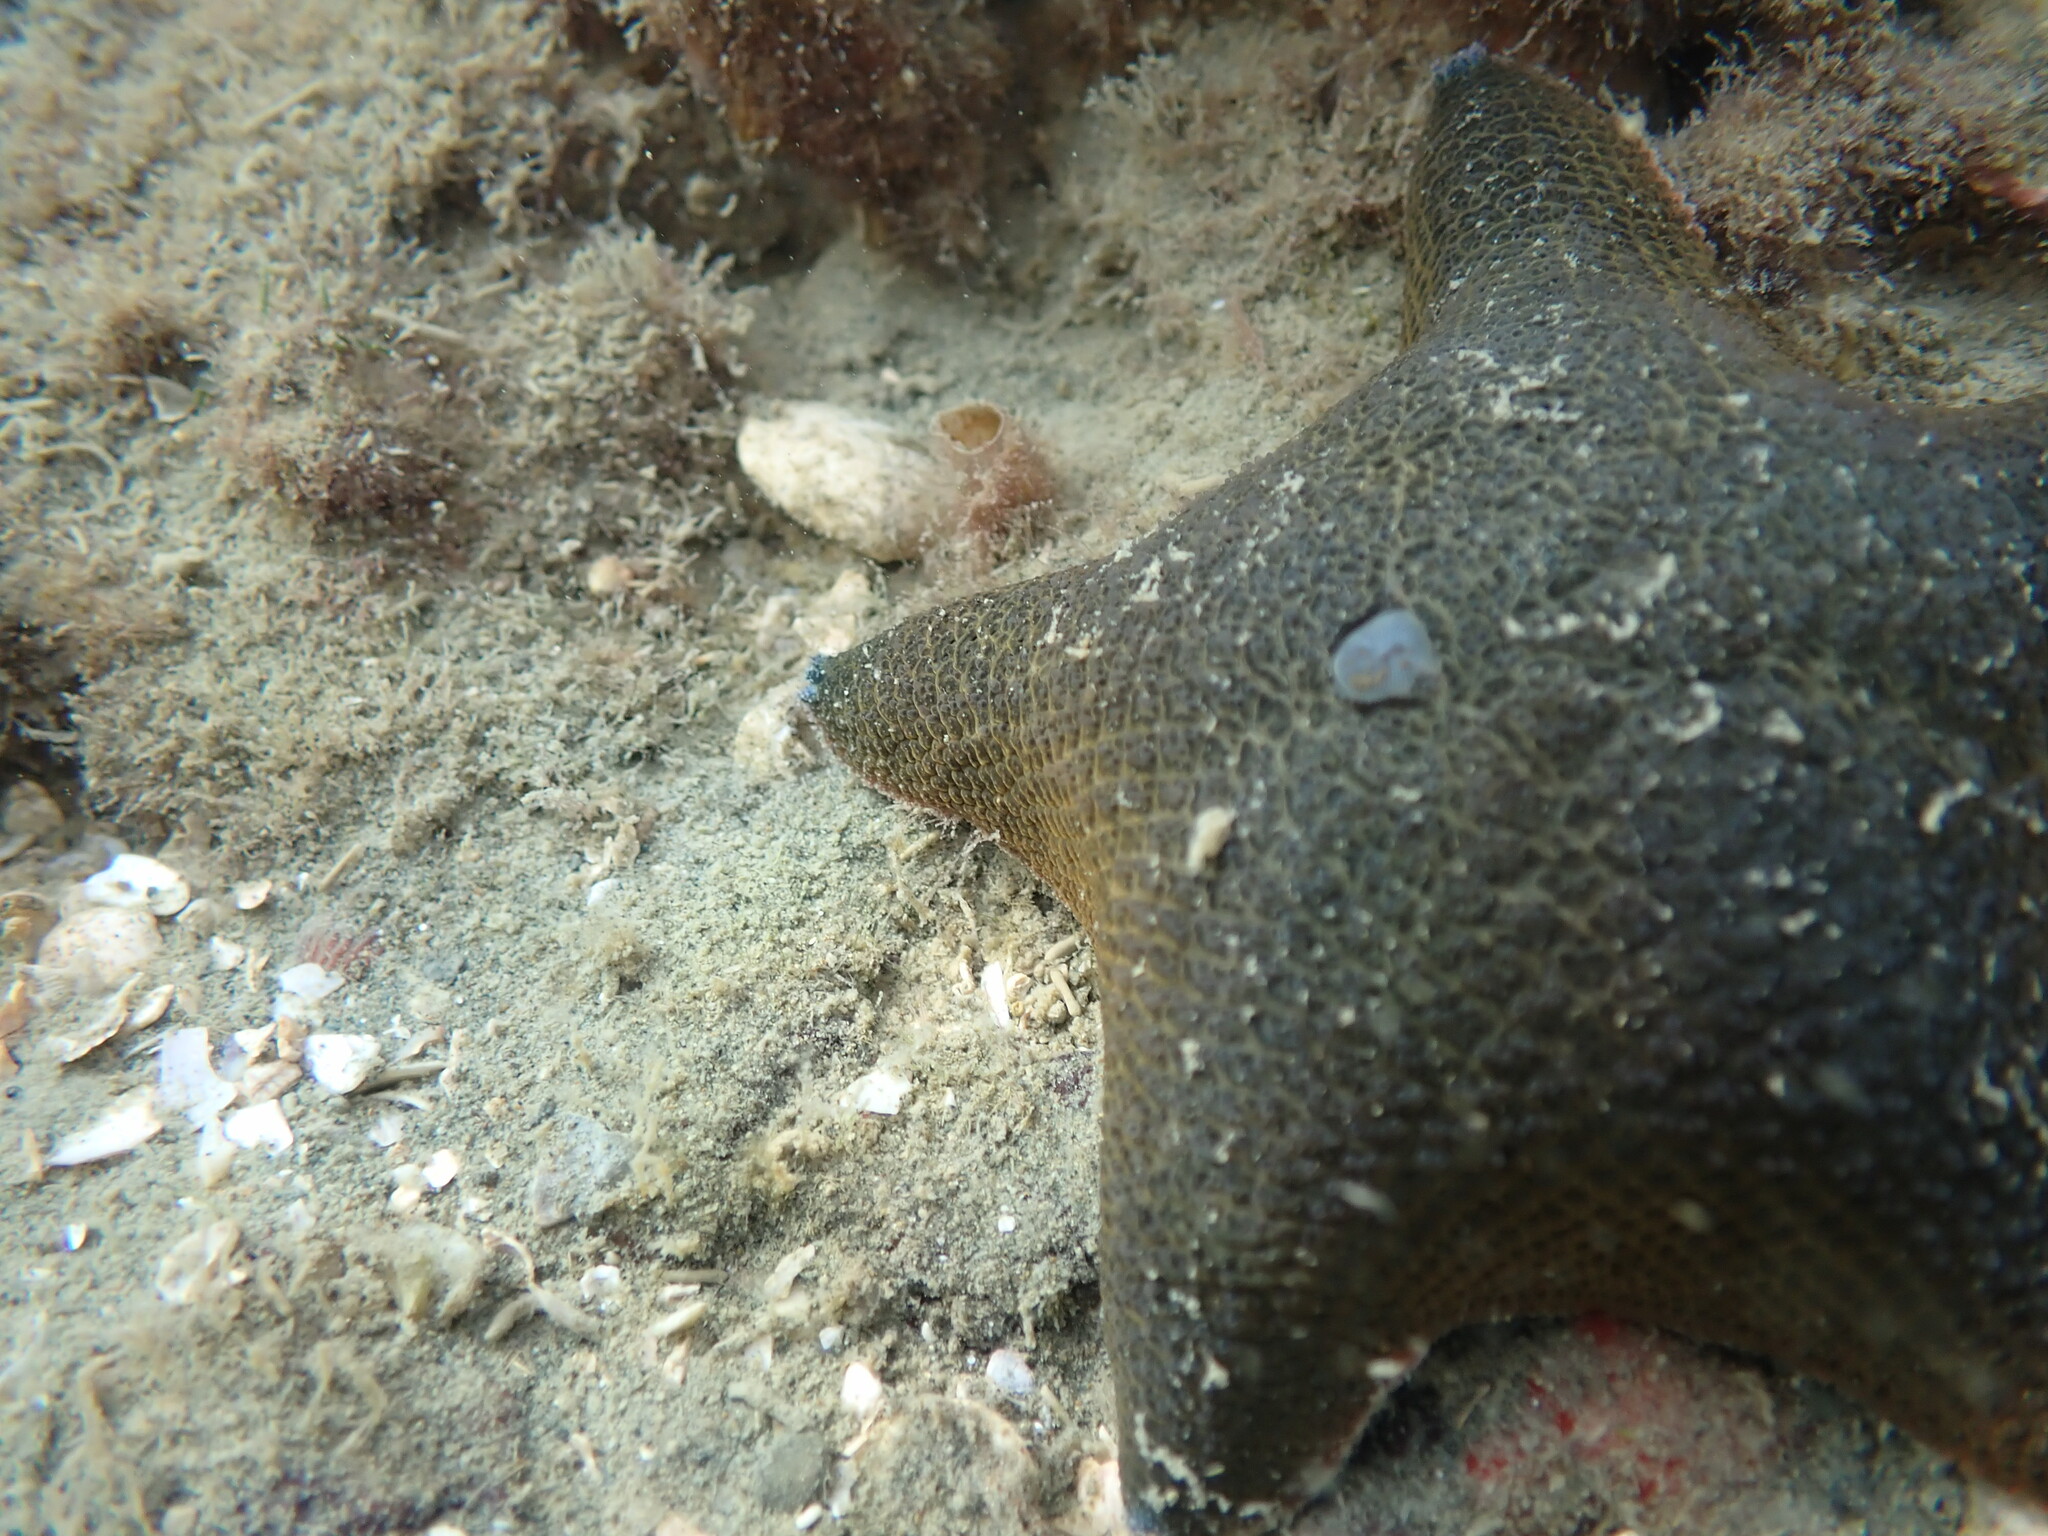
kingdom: Animalia
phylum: Echinodermata
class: Asteroidea
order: Valvatida
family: Asterinidae
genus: Patiriella
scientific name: Patiriella regularis
